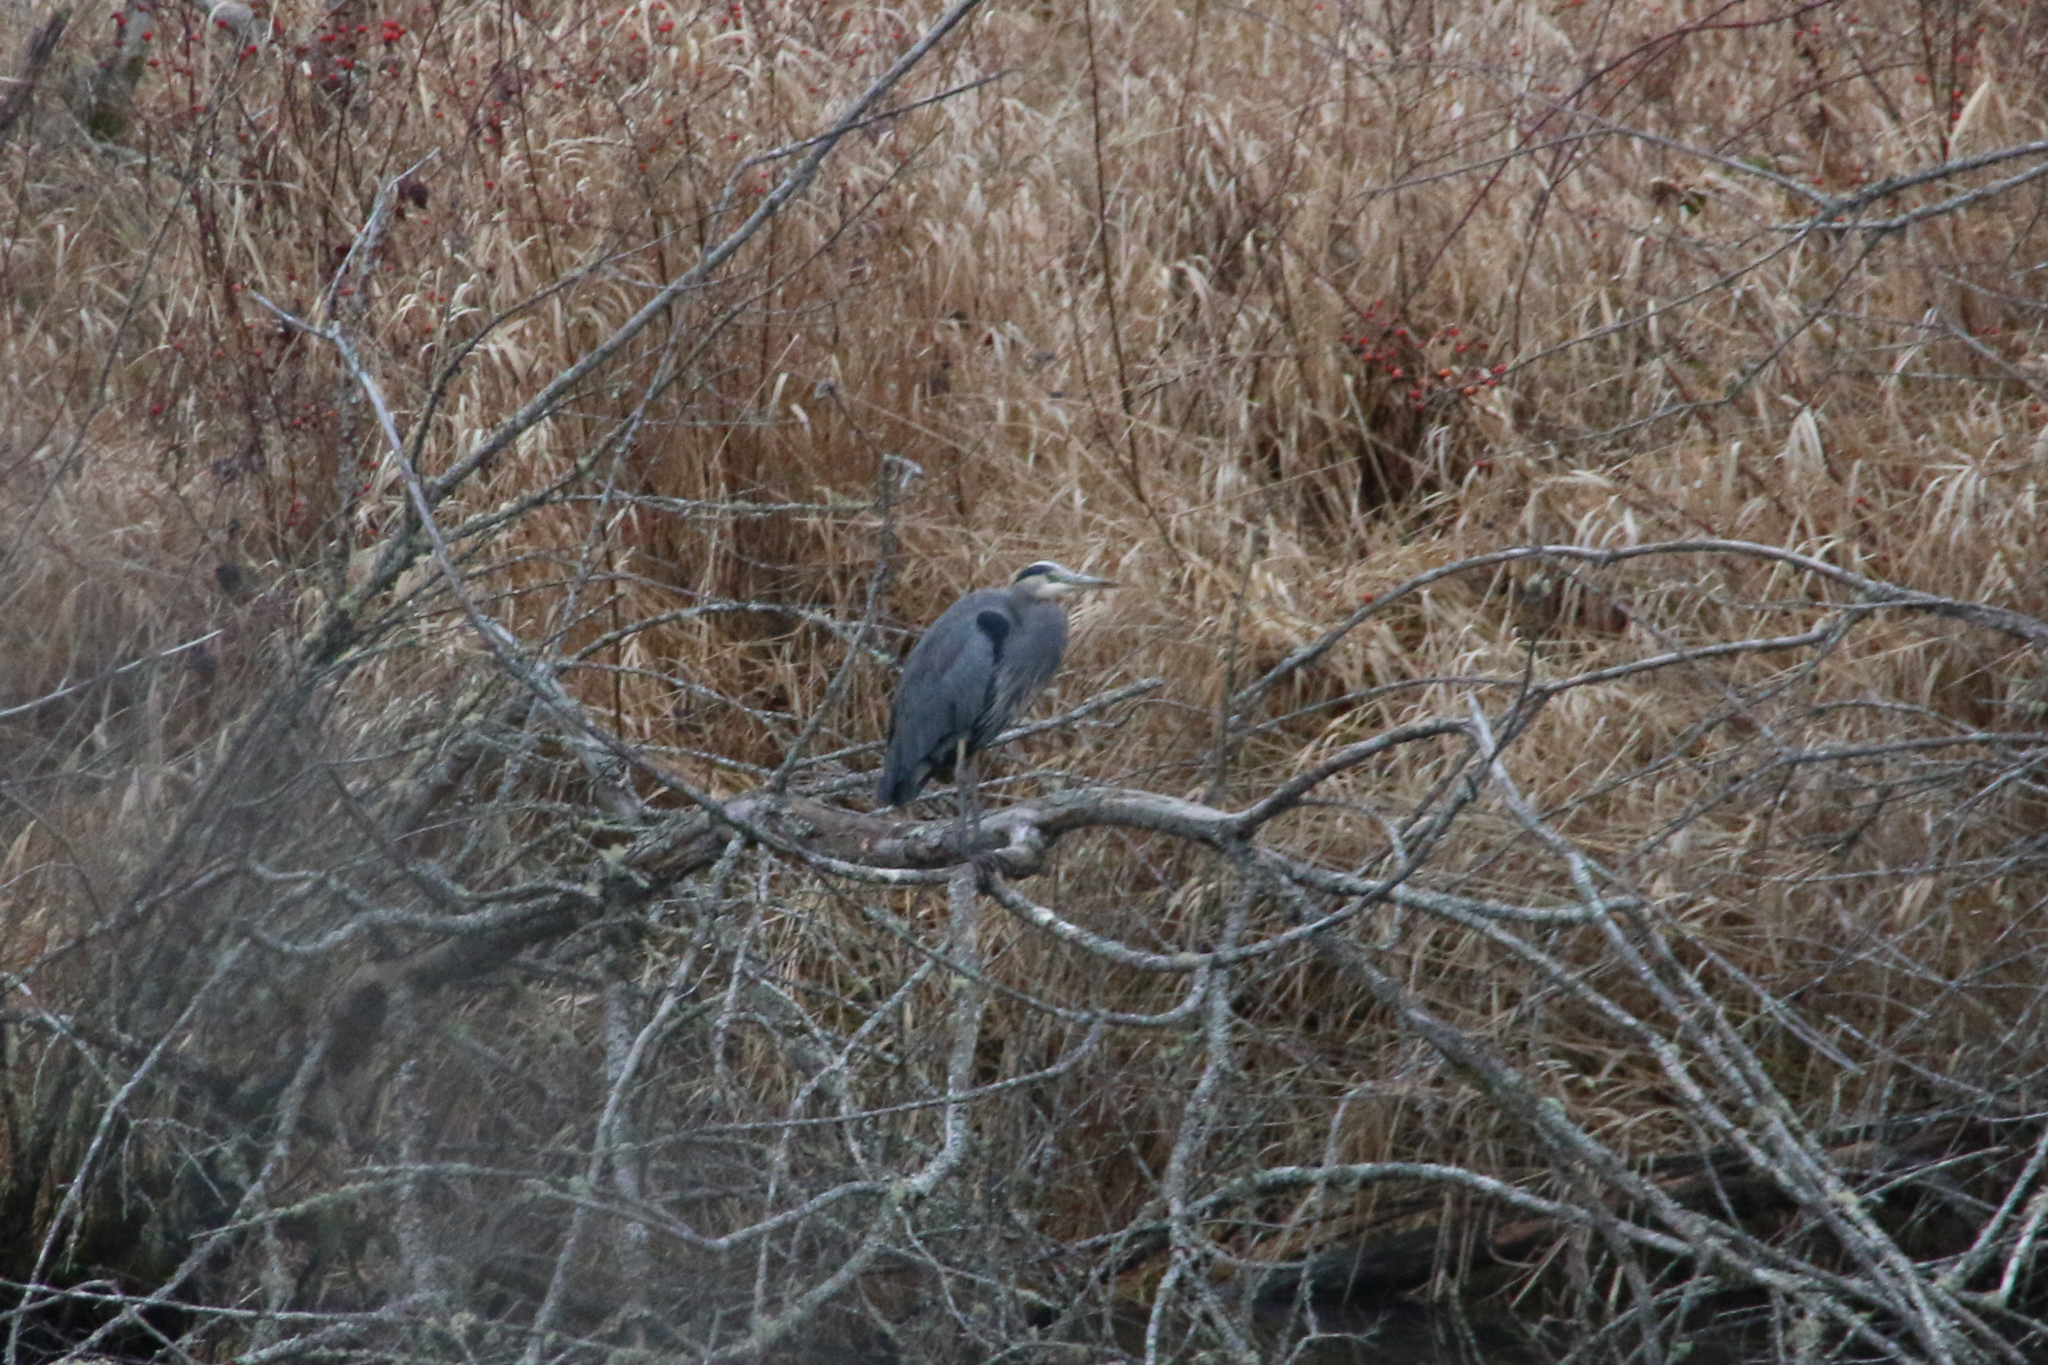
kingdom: Animalia
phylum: Chordata
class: Aves
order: Pelecaniformes
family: Ardeidae
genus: Ardea
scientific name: Ardea herodias
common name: Great blue heron
